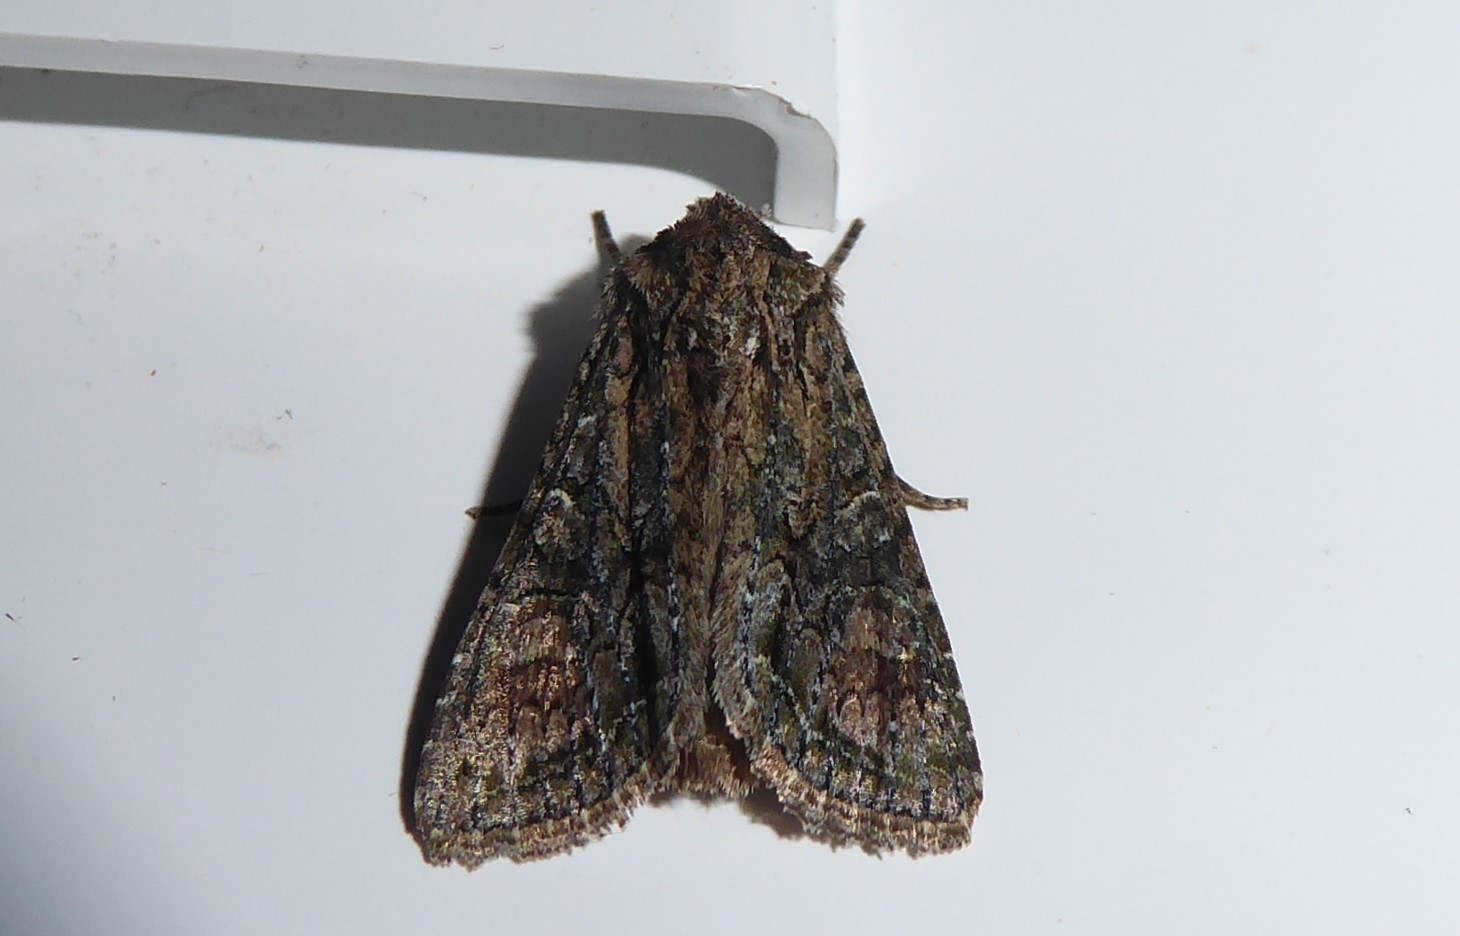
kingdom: Animalia
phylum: Arthropoda
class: Insecta
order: Lepidoptera
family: Noctuidae
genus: Ichneutica
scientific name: Ichneutica mutans
